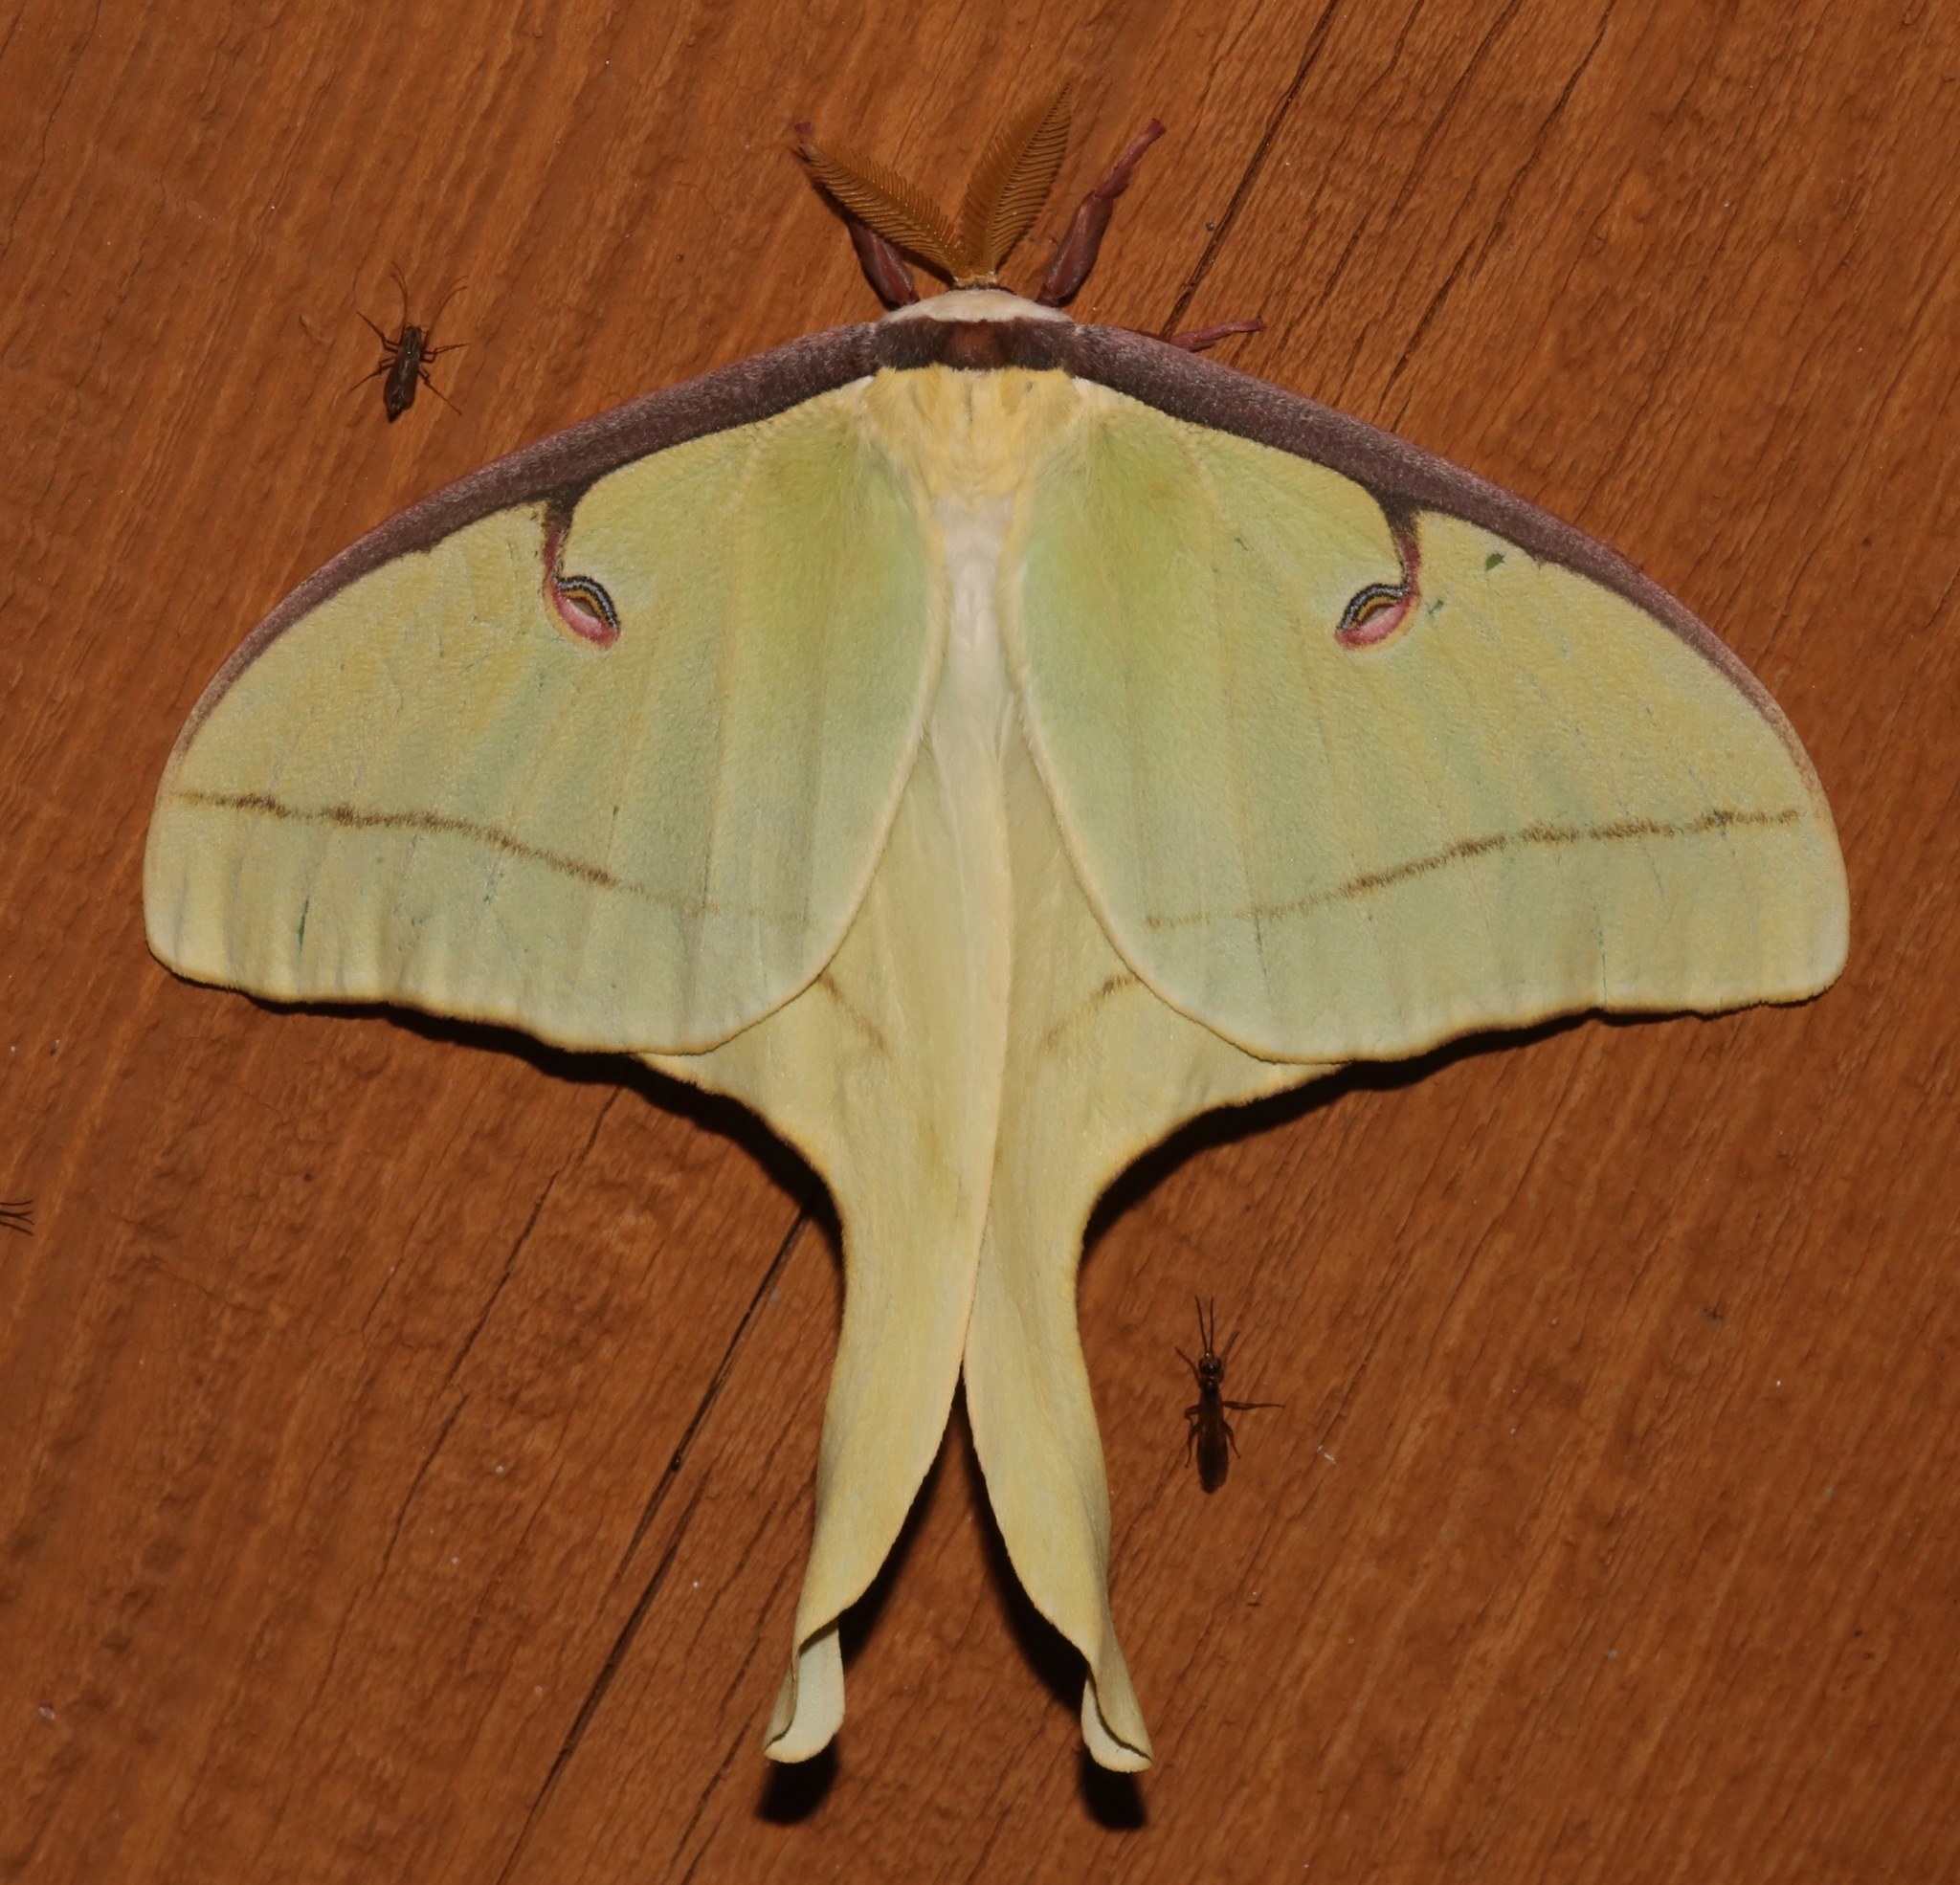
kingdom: Animalia
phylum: Arthropoda
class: Insecta
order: Lepidoptera
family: Saturniidae
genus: Actias
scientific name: Actias luna
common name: Luna moth
